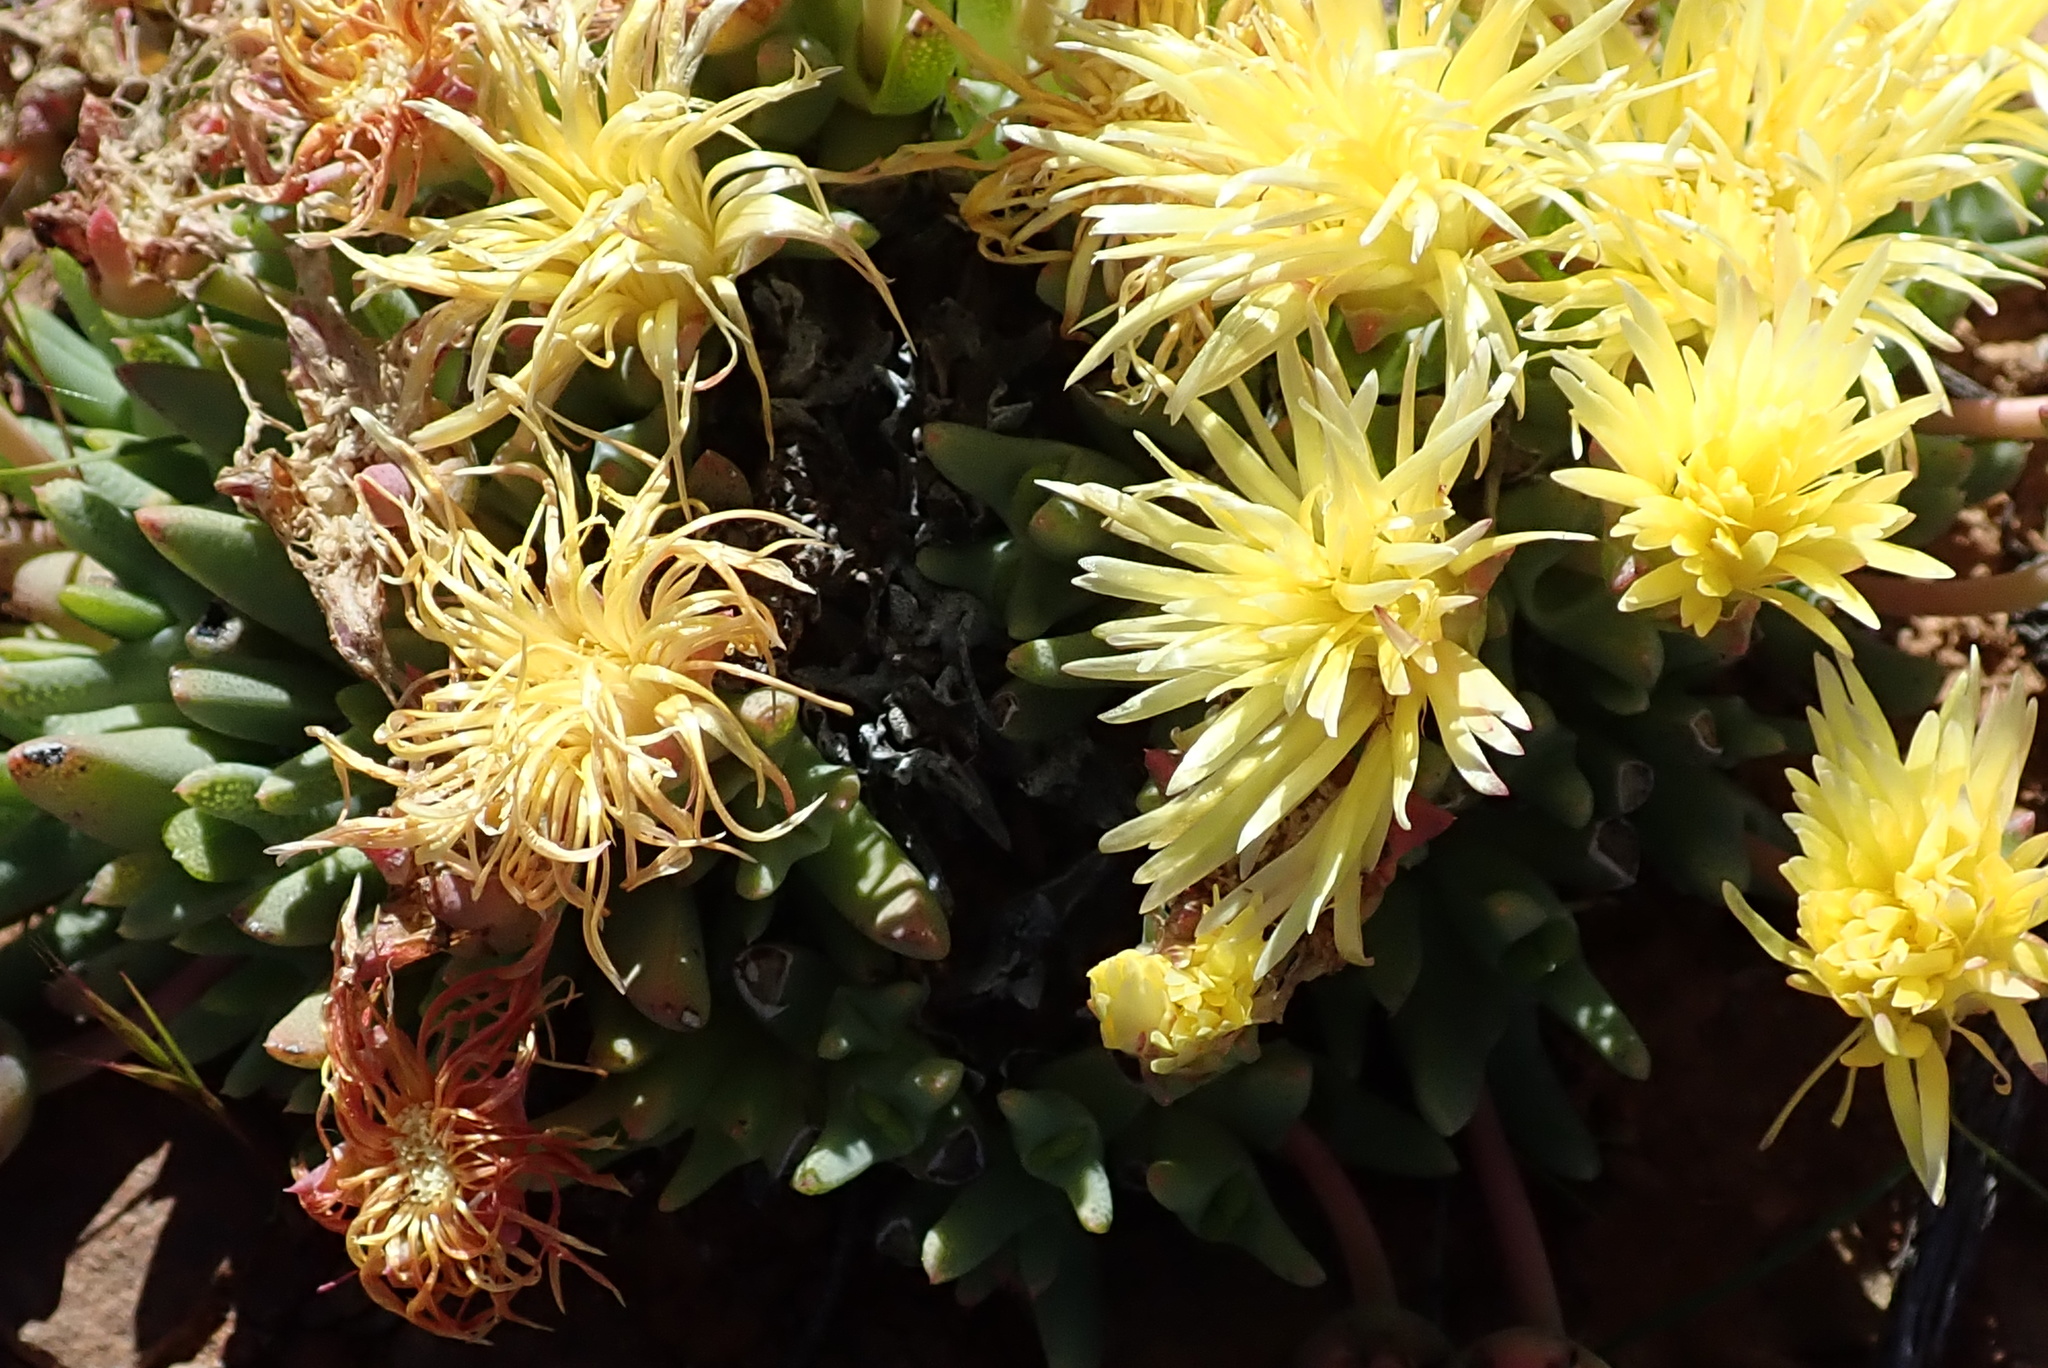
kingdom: Plantae
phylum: Tracheophyta
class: Magnoliopsida
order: Caryophyllales
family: Aizoaceae
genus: Cheiridopsis
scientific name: Cheiridopsis namaquensis
